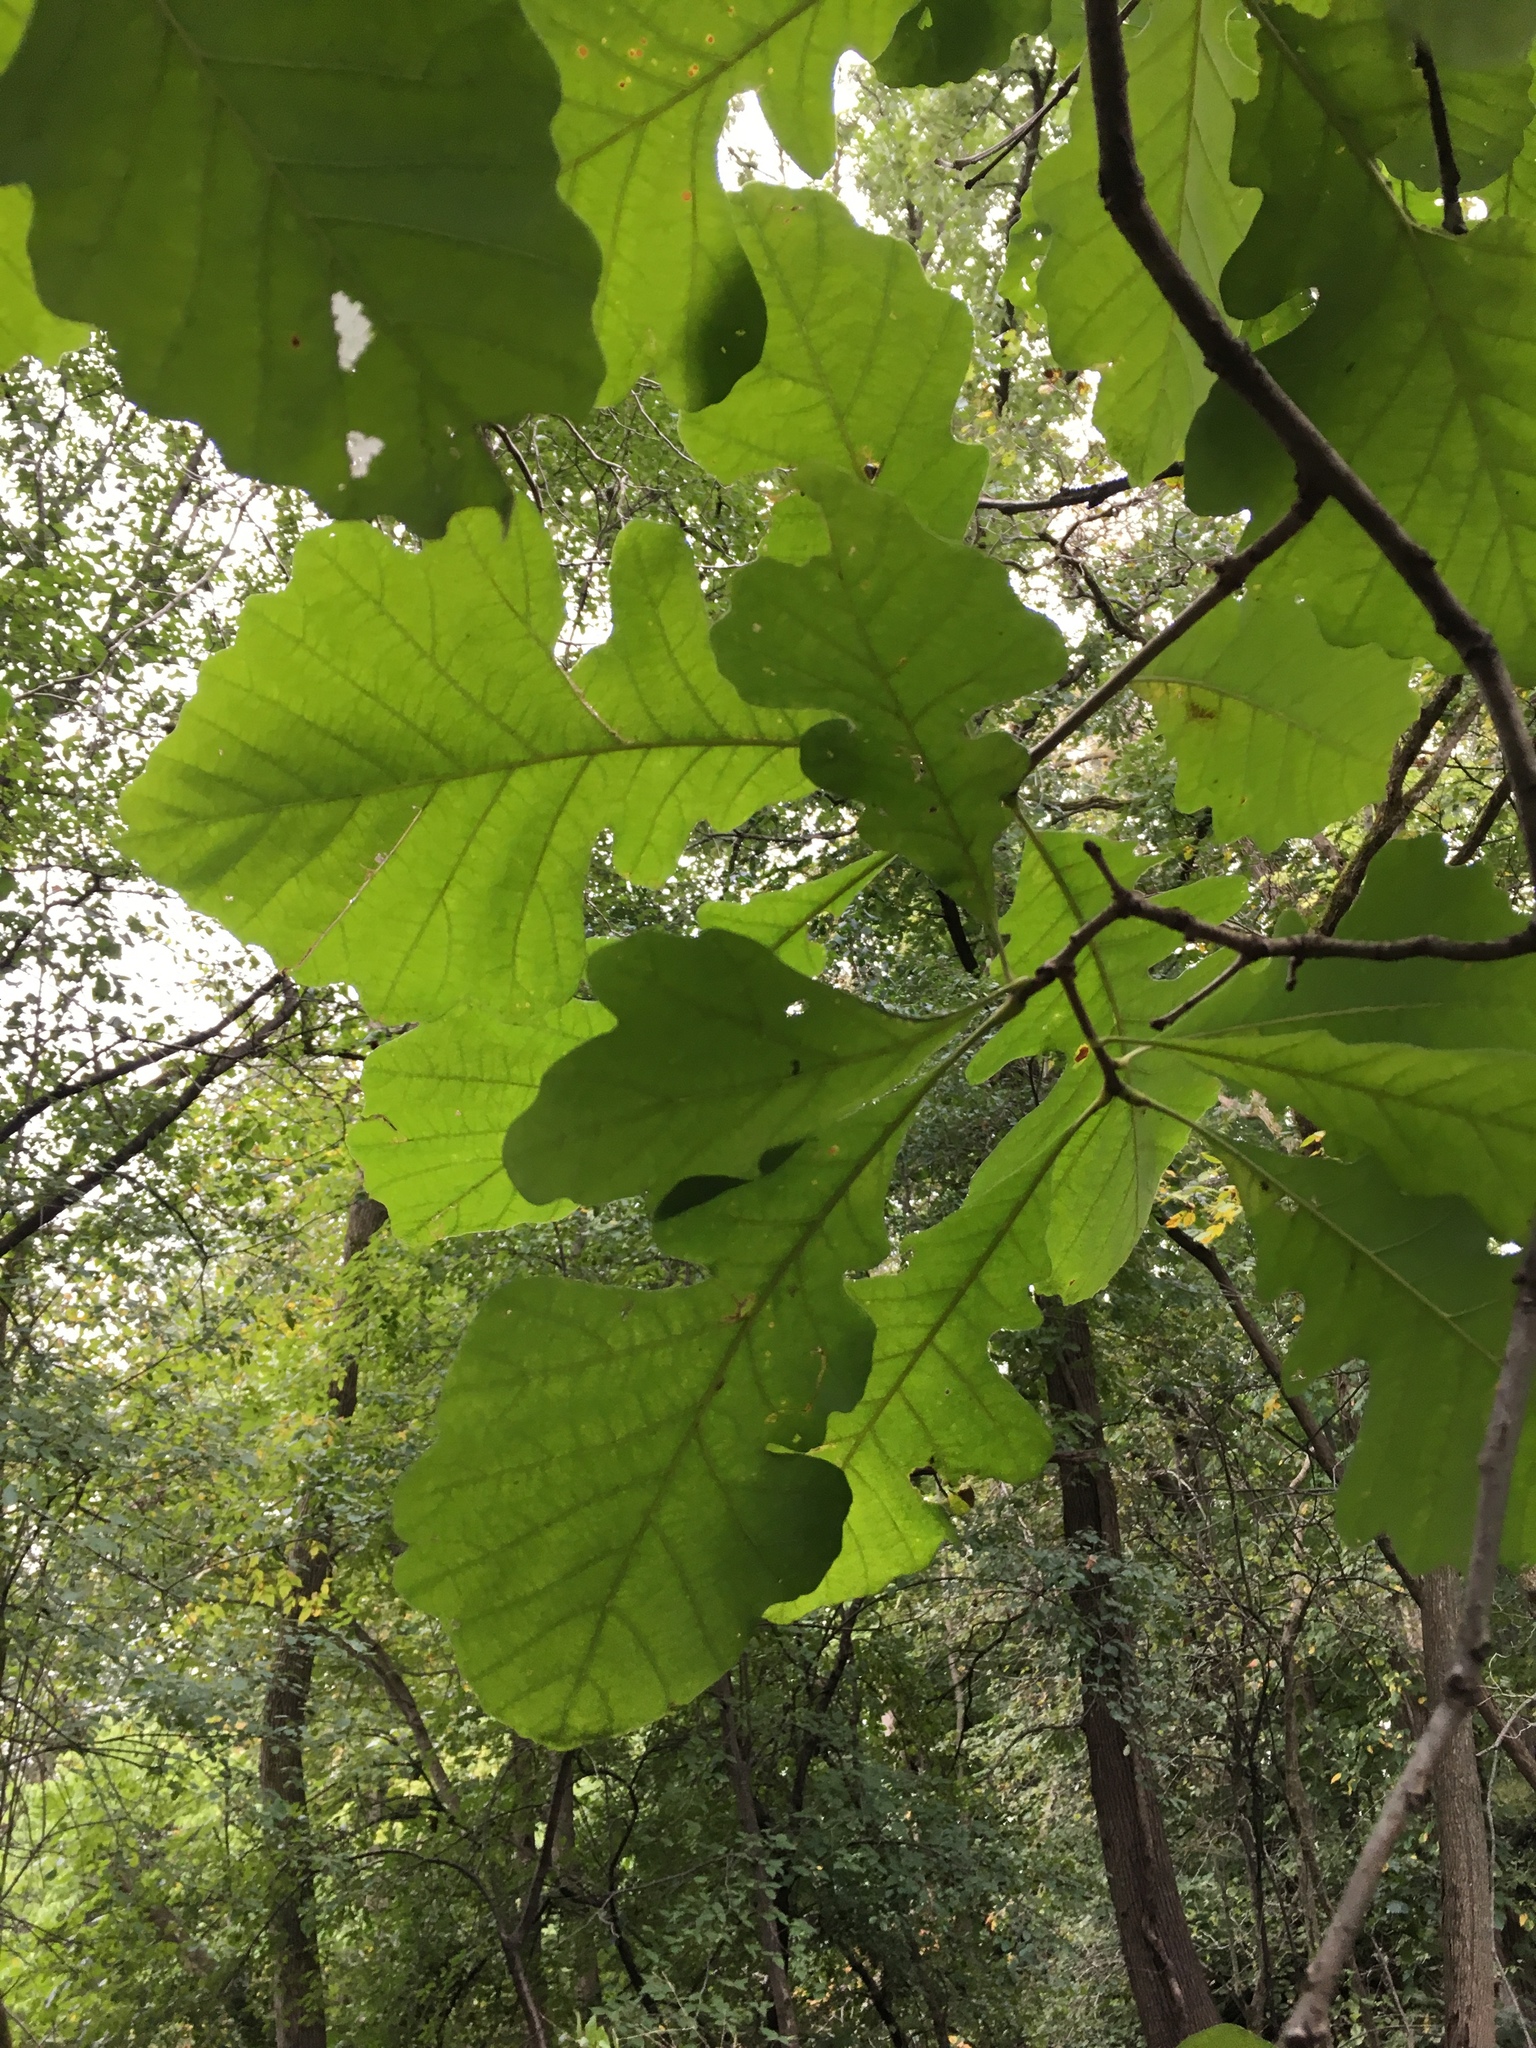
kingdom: Plantae
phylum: Tracheophyta
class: Magnoliopsida
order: Fagales
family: Fagaceae
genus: Quercus
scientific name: Quercus macrocarpa
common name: Bur oak
